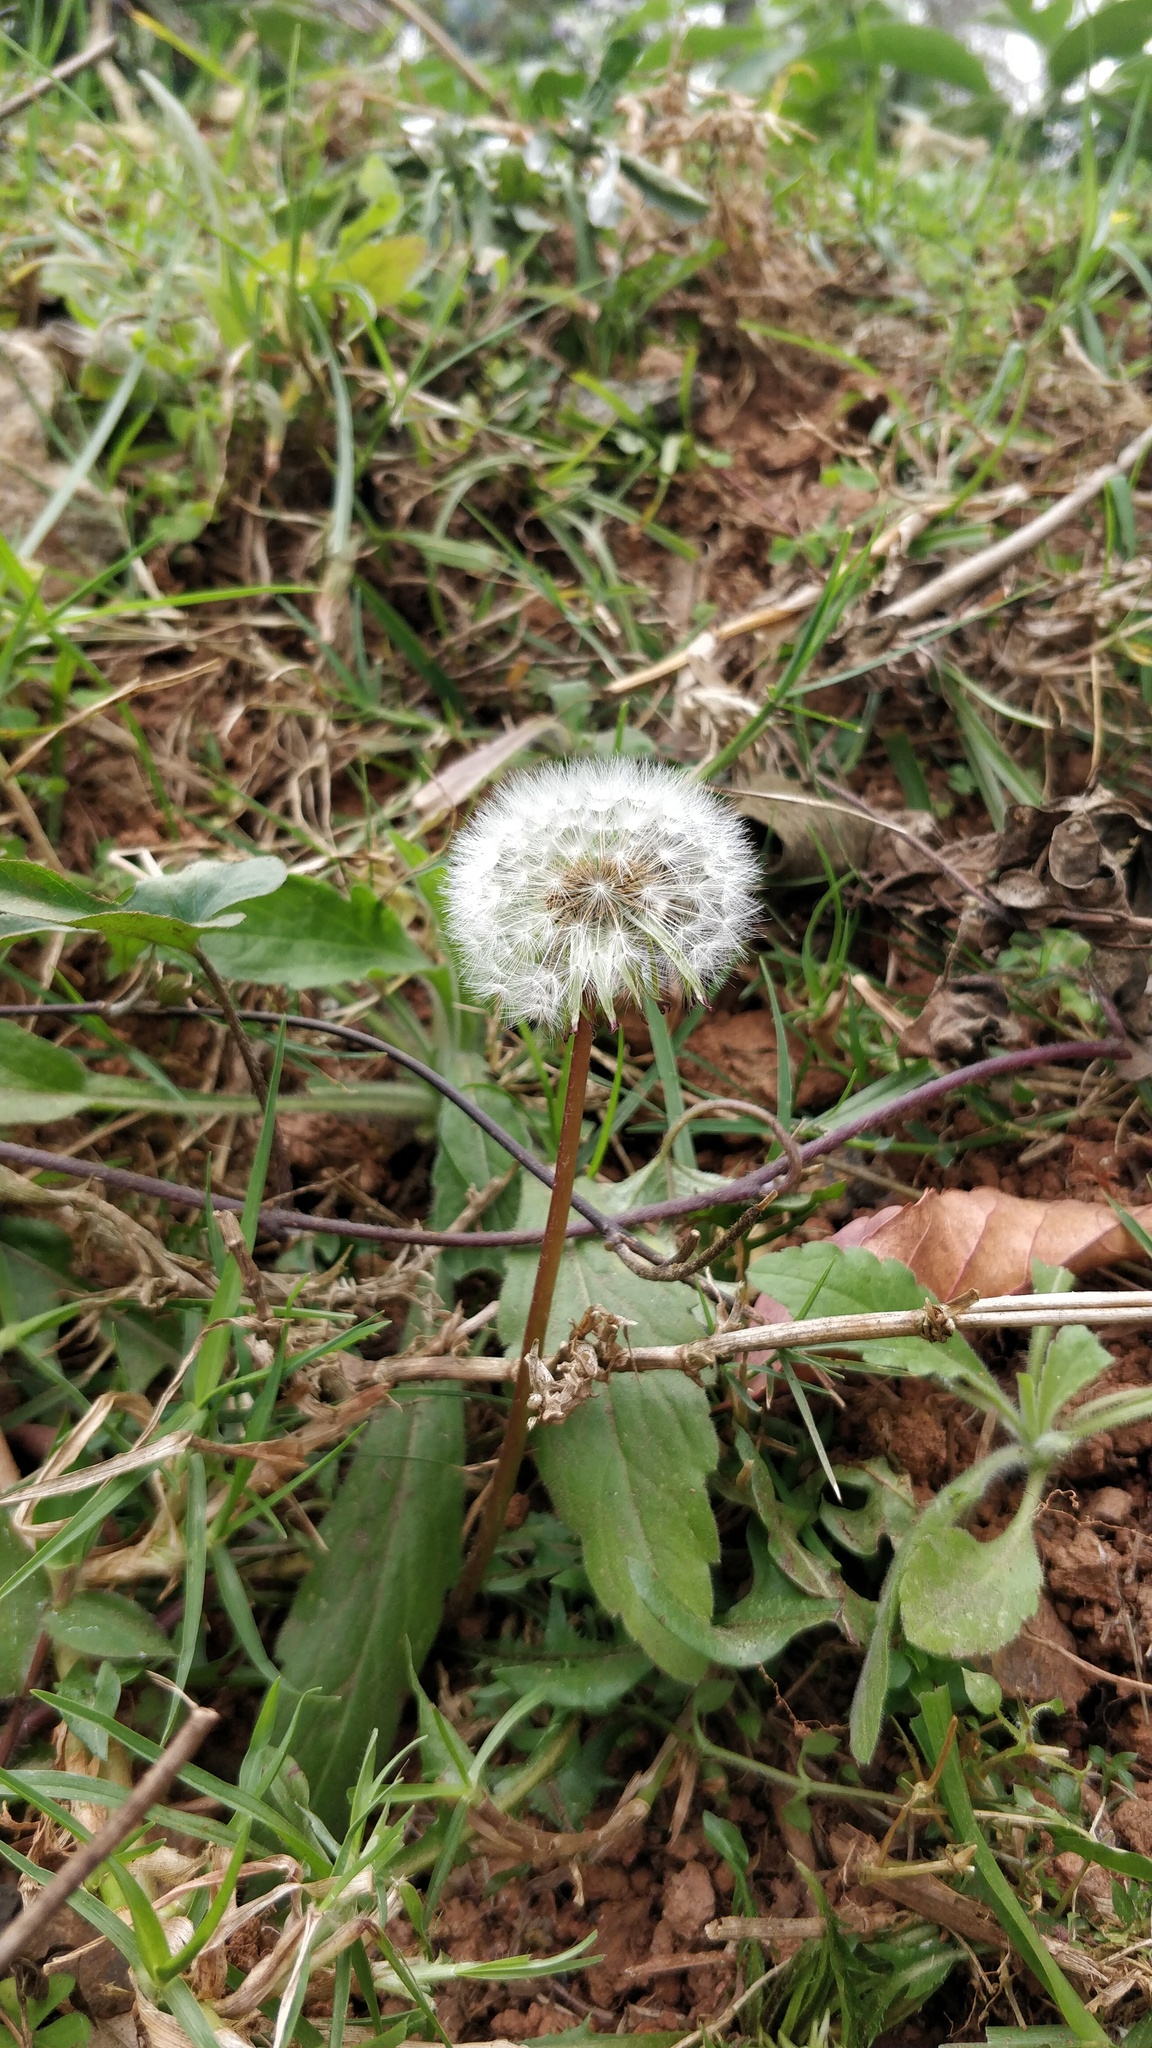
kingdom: Plantae
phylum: Tracheophyta
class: Magnoliopsida
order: Asterales
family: Asteraceae
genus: Taraxacum
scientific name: Taraxacum officinale
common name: Common dandelion
